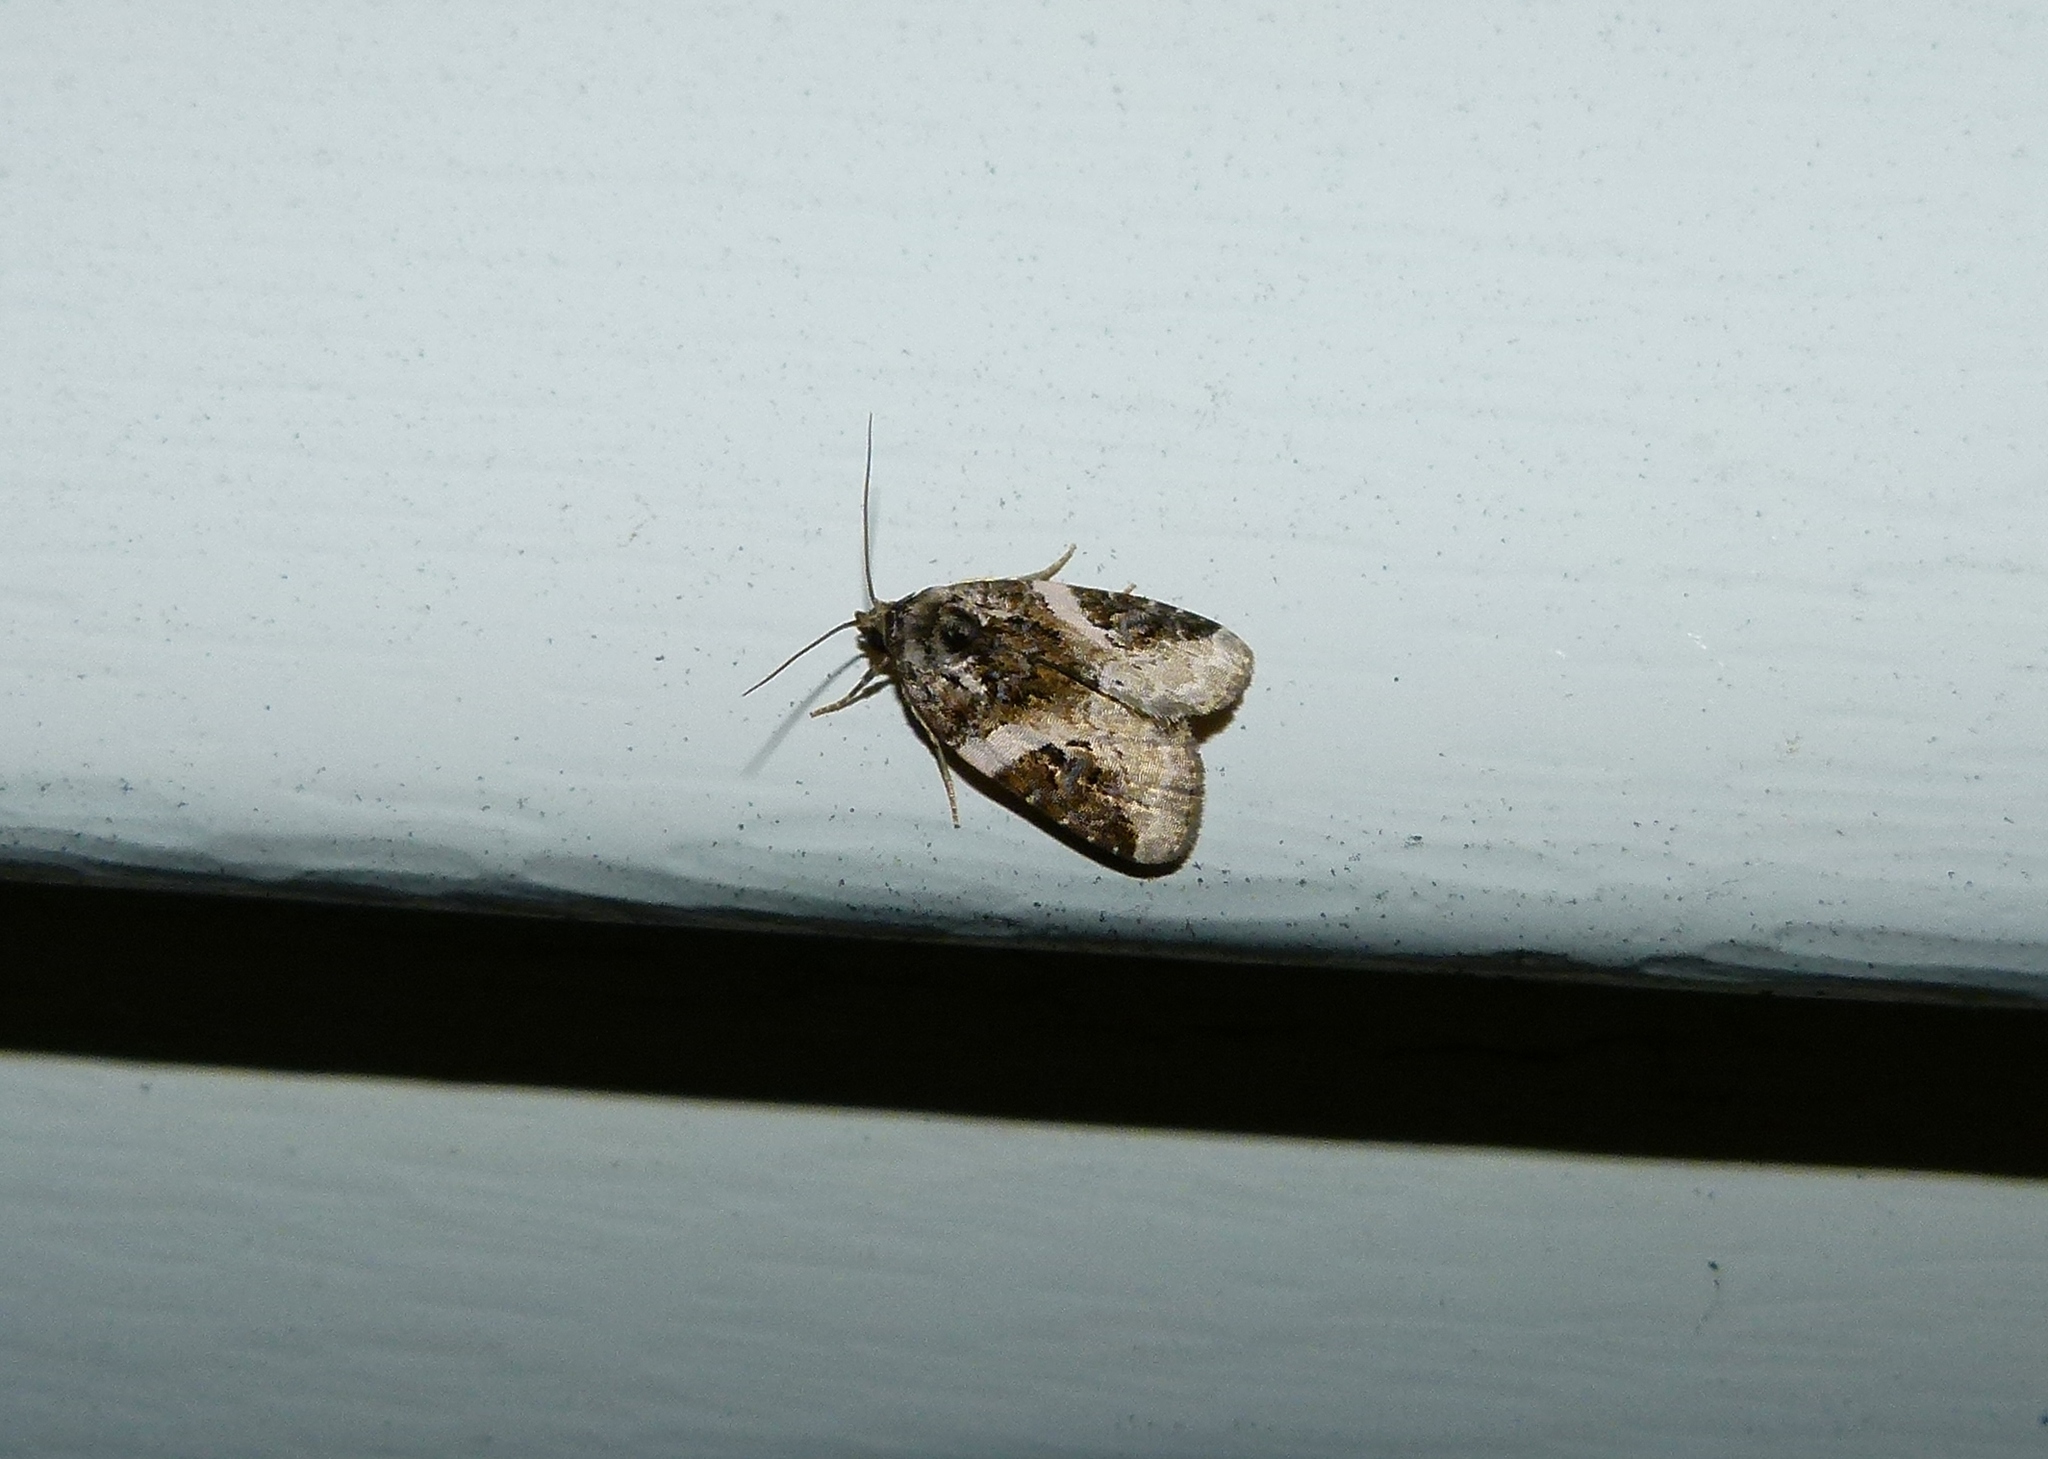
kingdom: Animalia
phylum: Arthropoda
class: Insecta
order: Lepidoptera
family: Noctuidae
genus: Pseudeustrotia
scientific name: Pseudeustrotia carneola
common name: Pink-barred lithacodia moth
